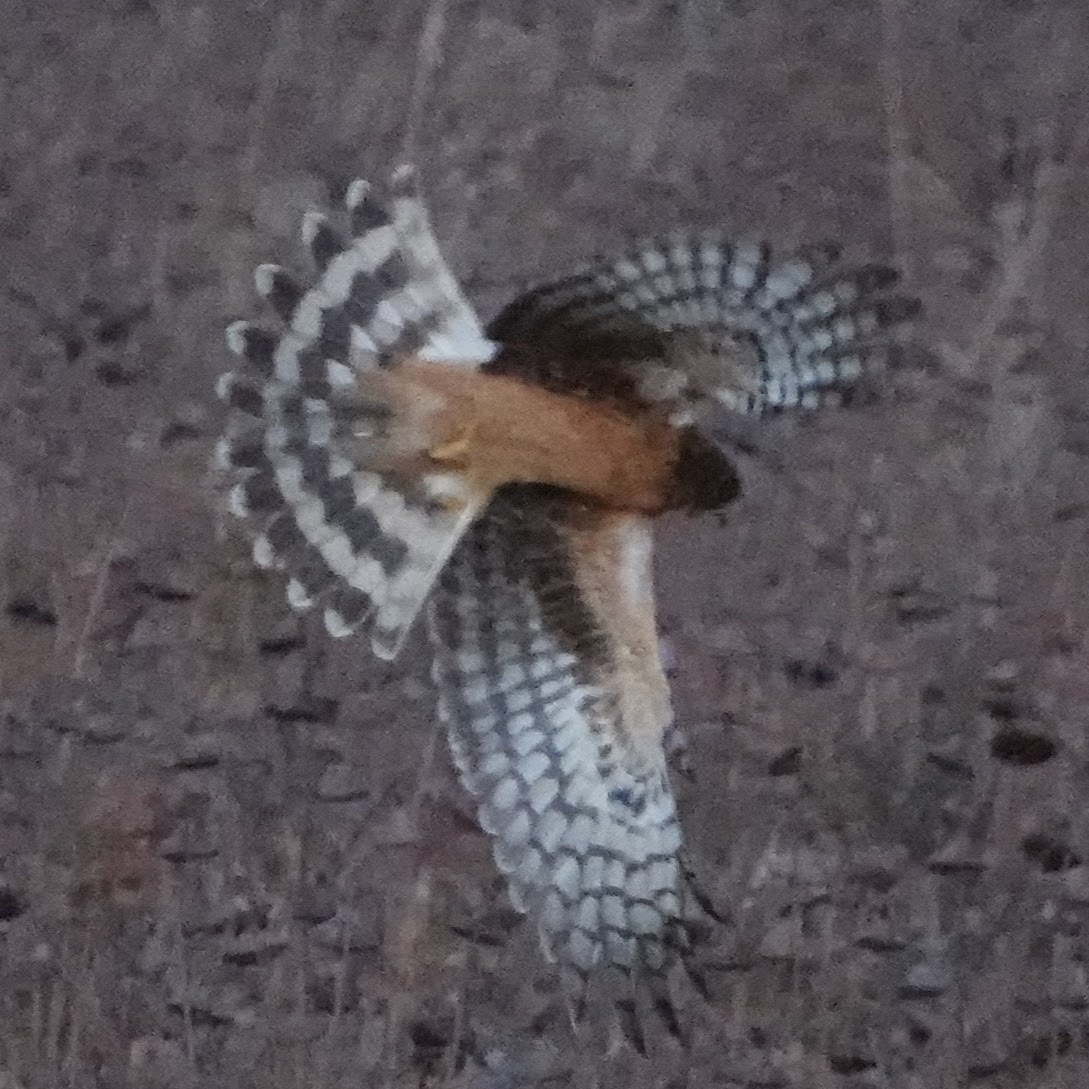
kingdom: Animalia
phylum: Chordata
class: Aves
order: Accipitriformes
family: Accipitridae
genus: Circus
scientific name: Circus cyaneus
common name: Hen harrier
